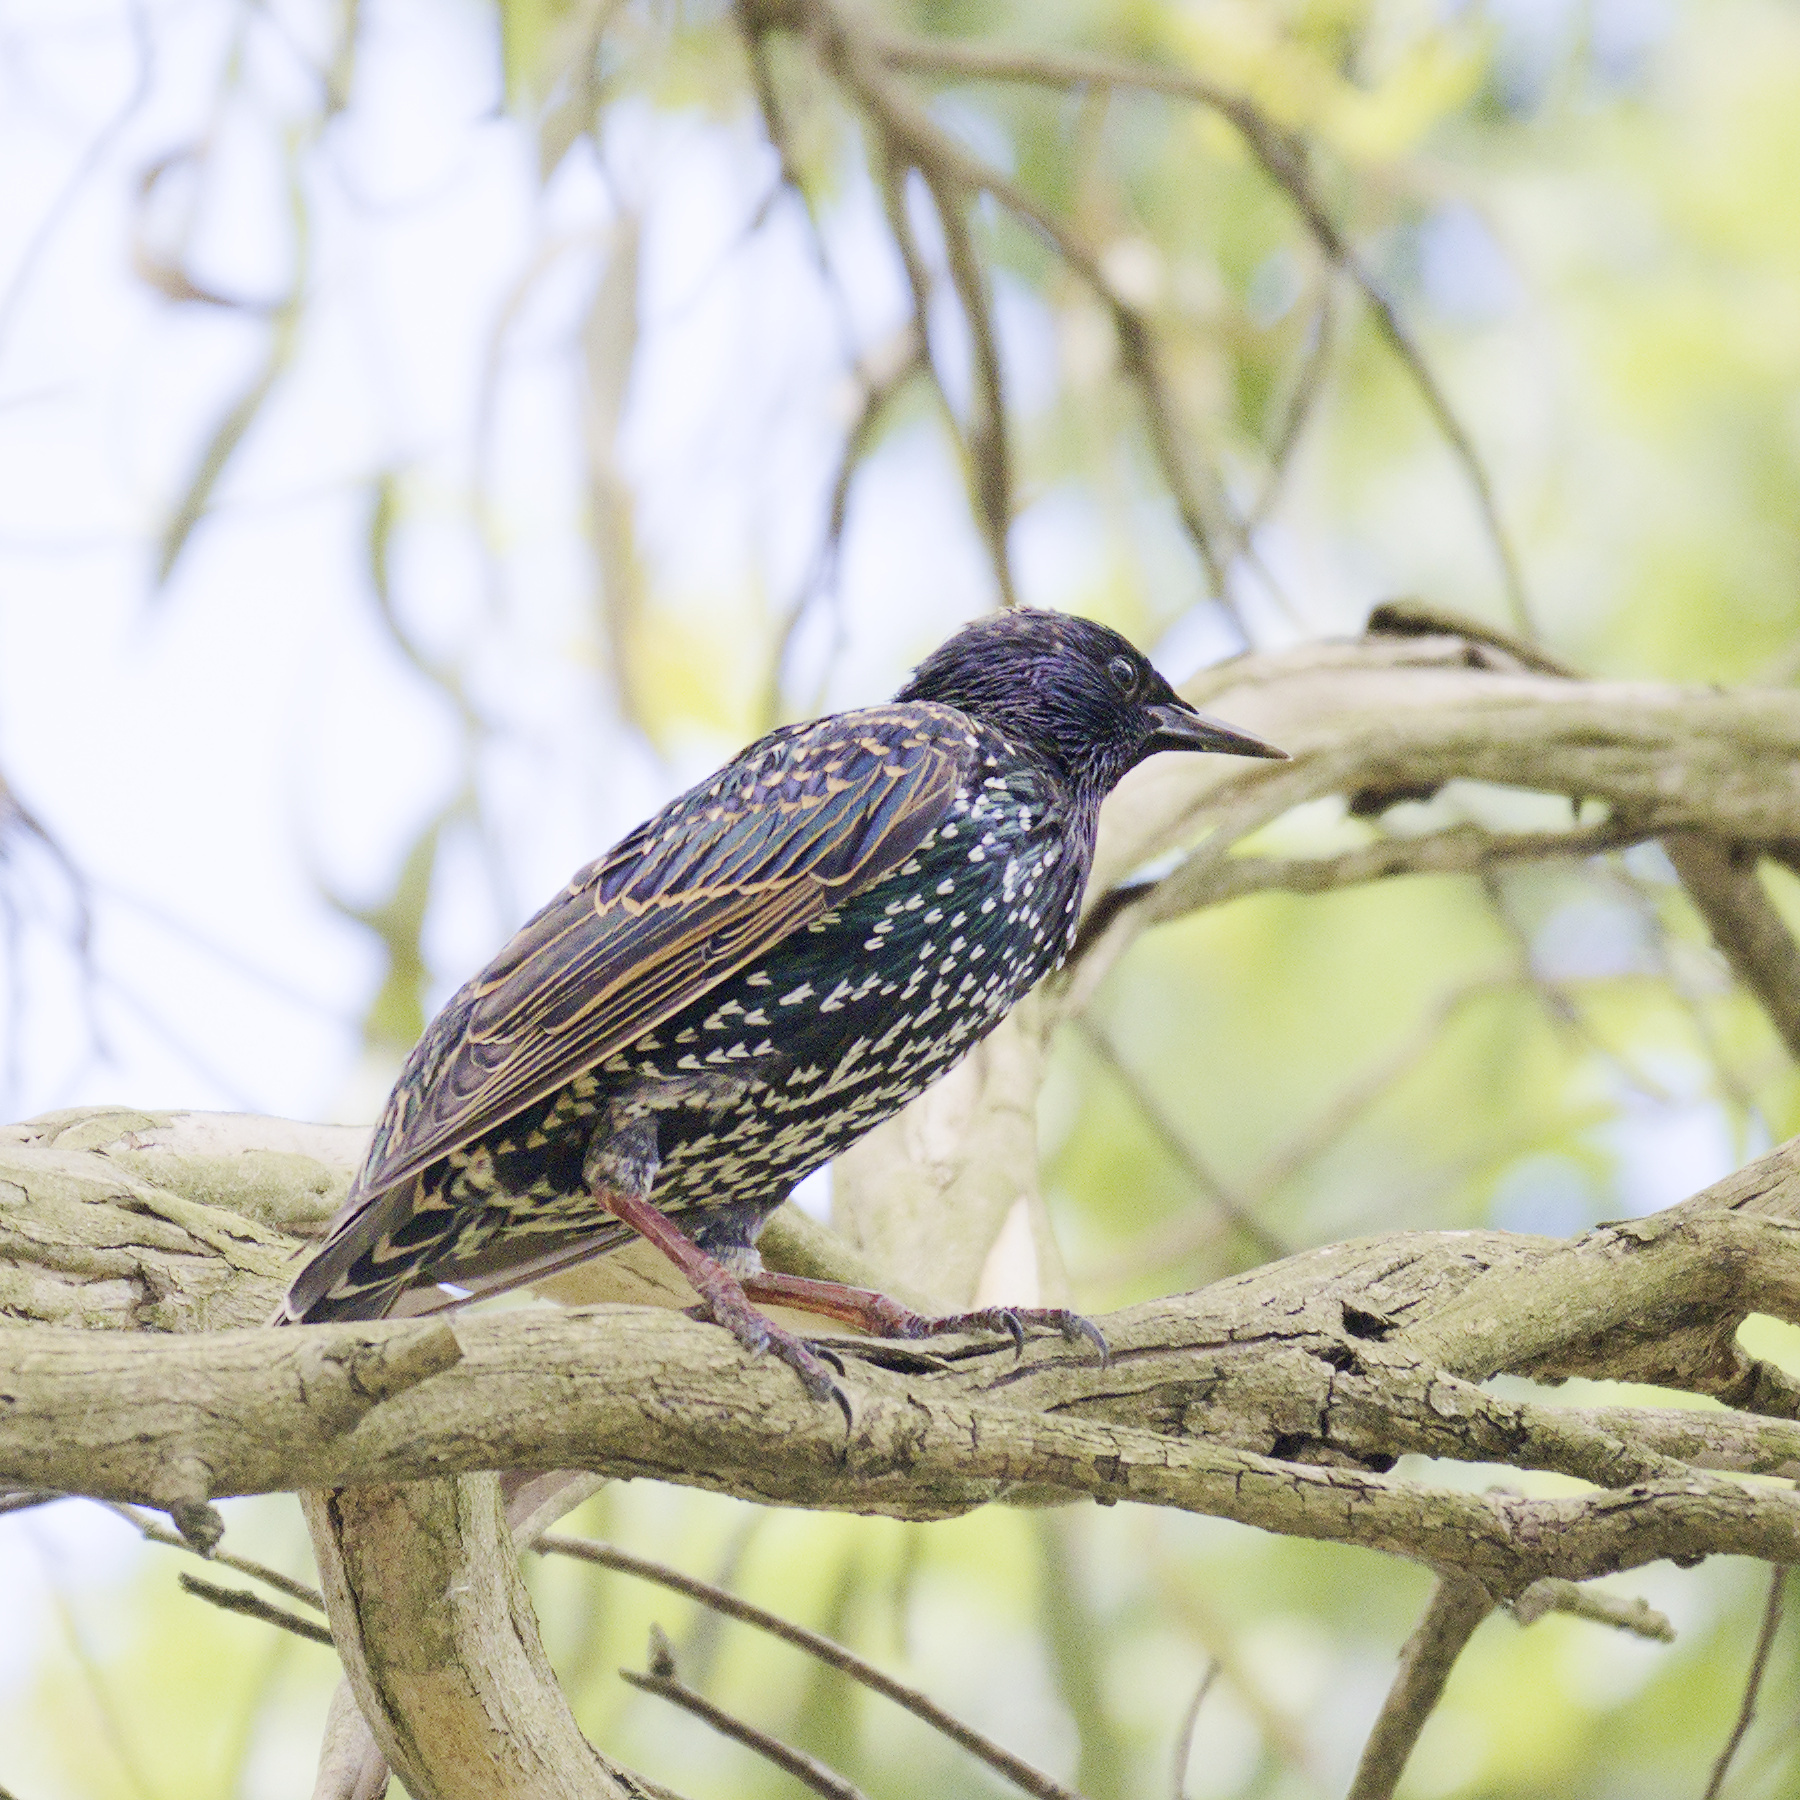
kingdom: Animalia
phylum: Chordata
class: Aves
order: Passeriformes
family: Sturnidae
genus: Sturnus
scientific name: Sturnus vulgaris
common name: Common starling
